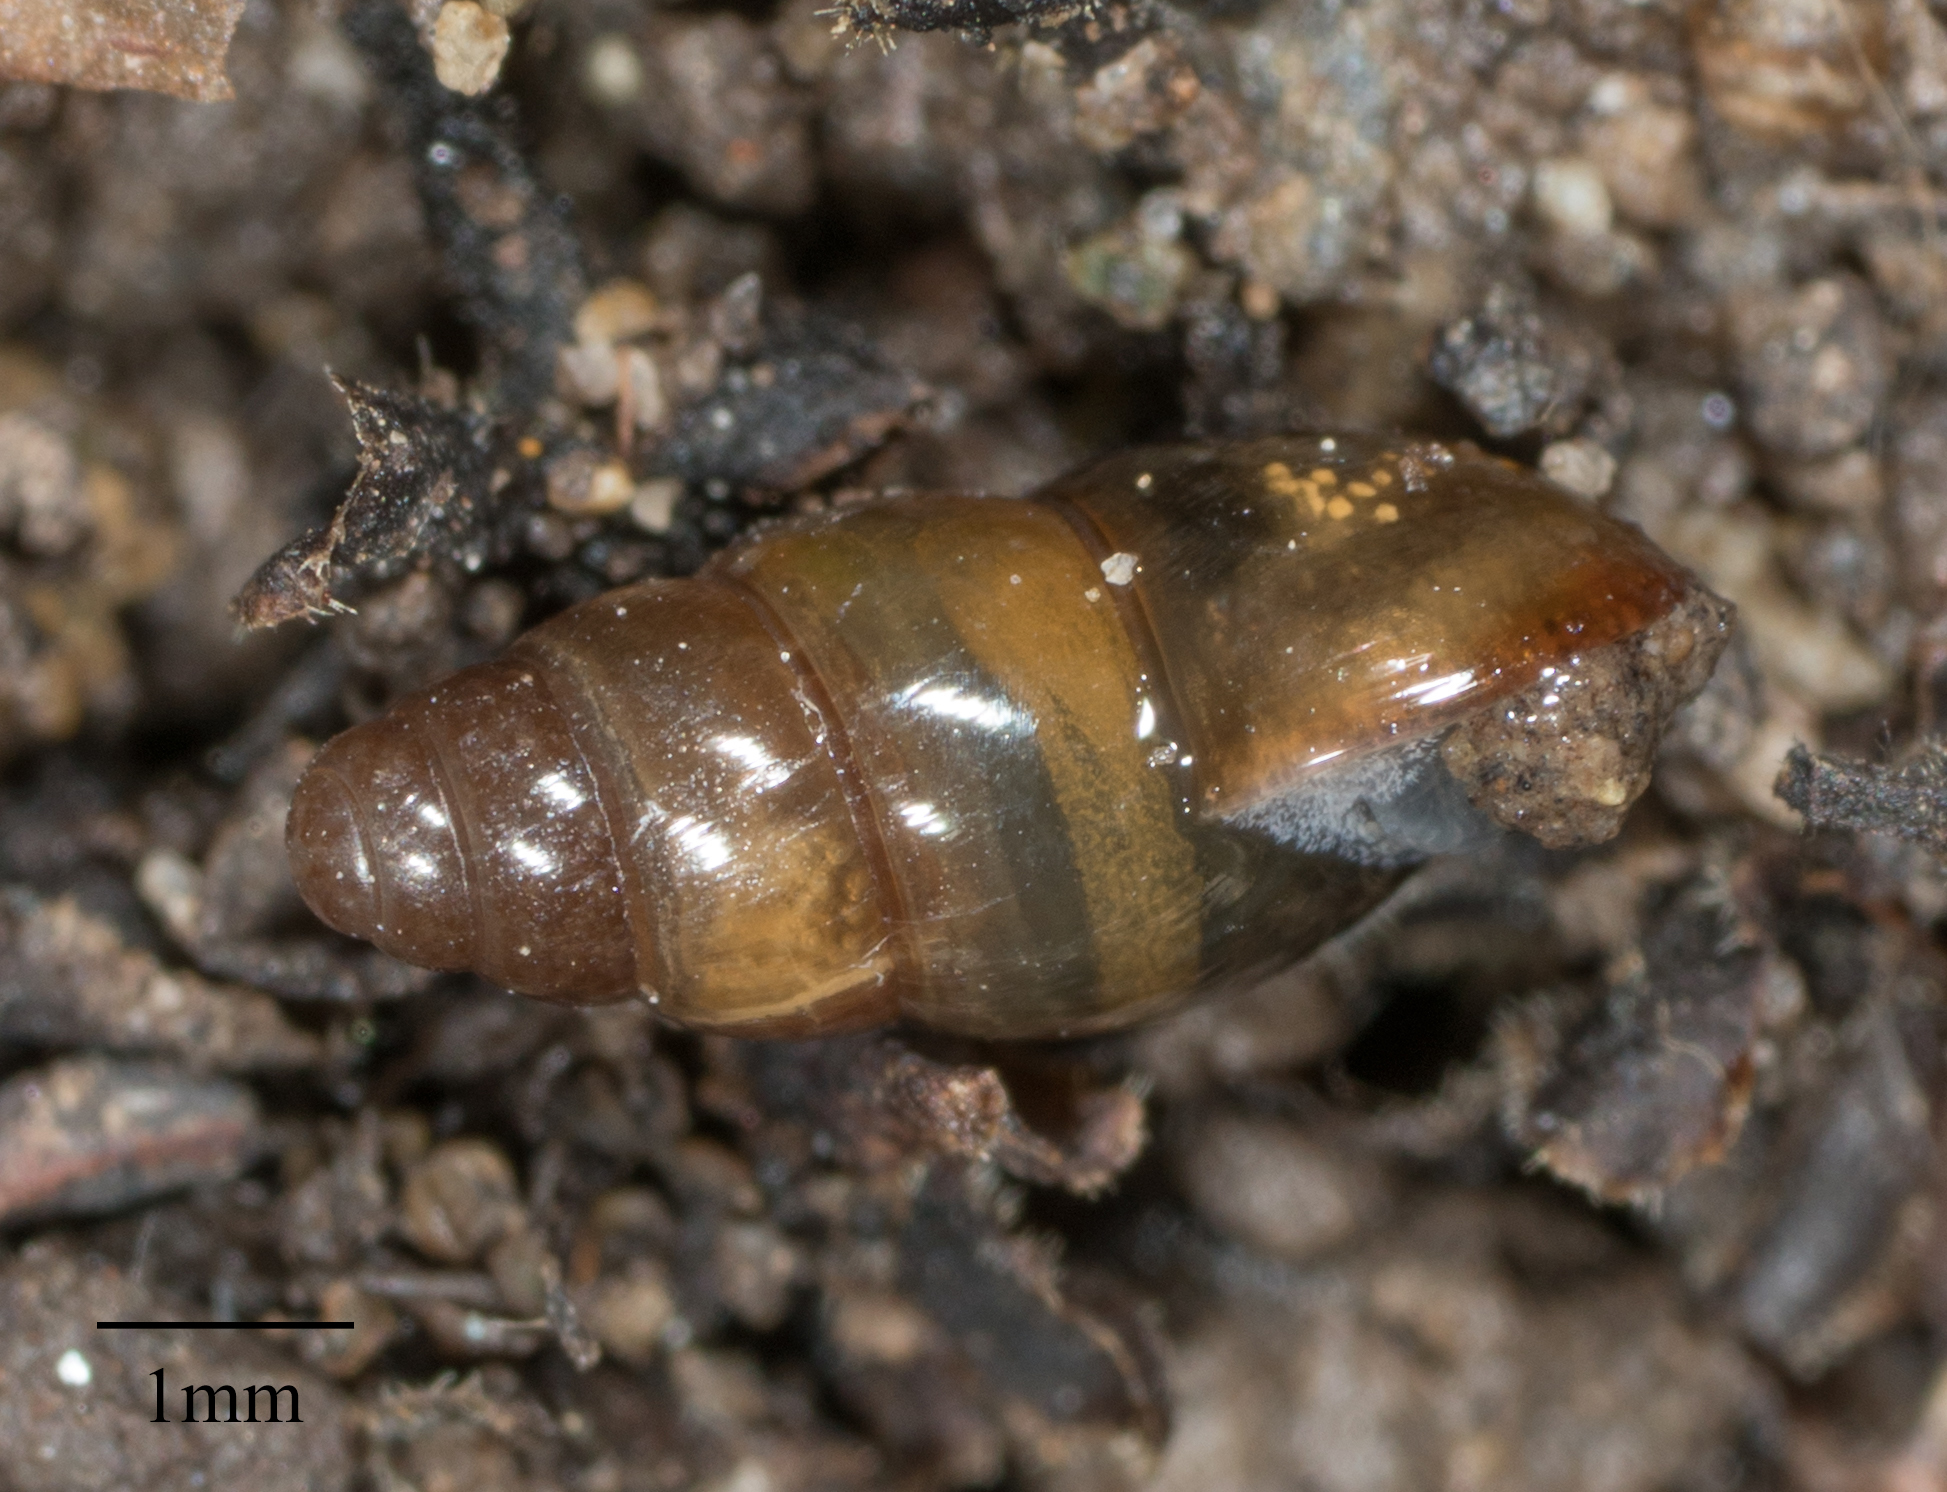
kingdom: Animalia
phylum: Mollusca
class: Gastropoda
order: Stylommatophora
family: Cochlicopidae
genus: Cochlicopa
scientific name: Cochlicopa lubrica
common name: Glossy pillar snail
